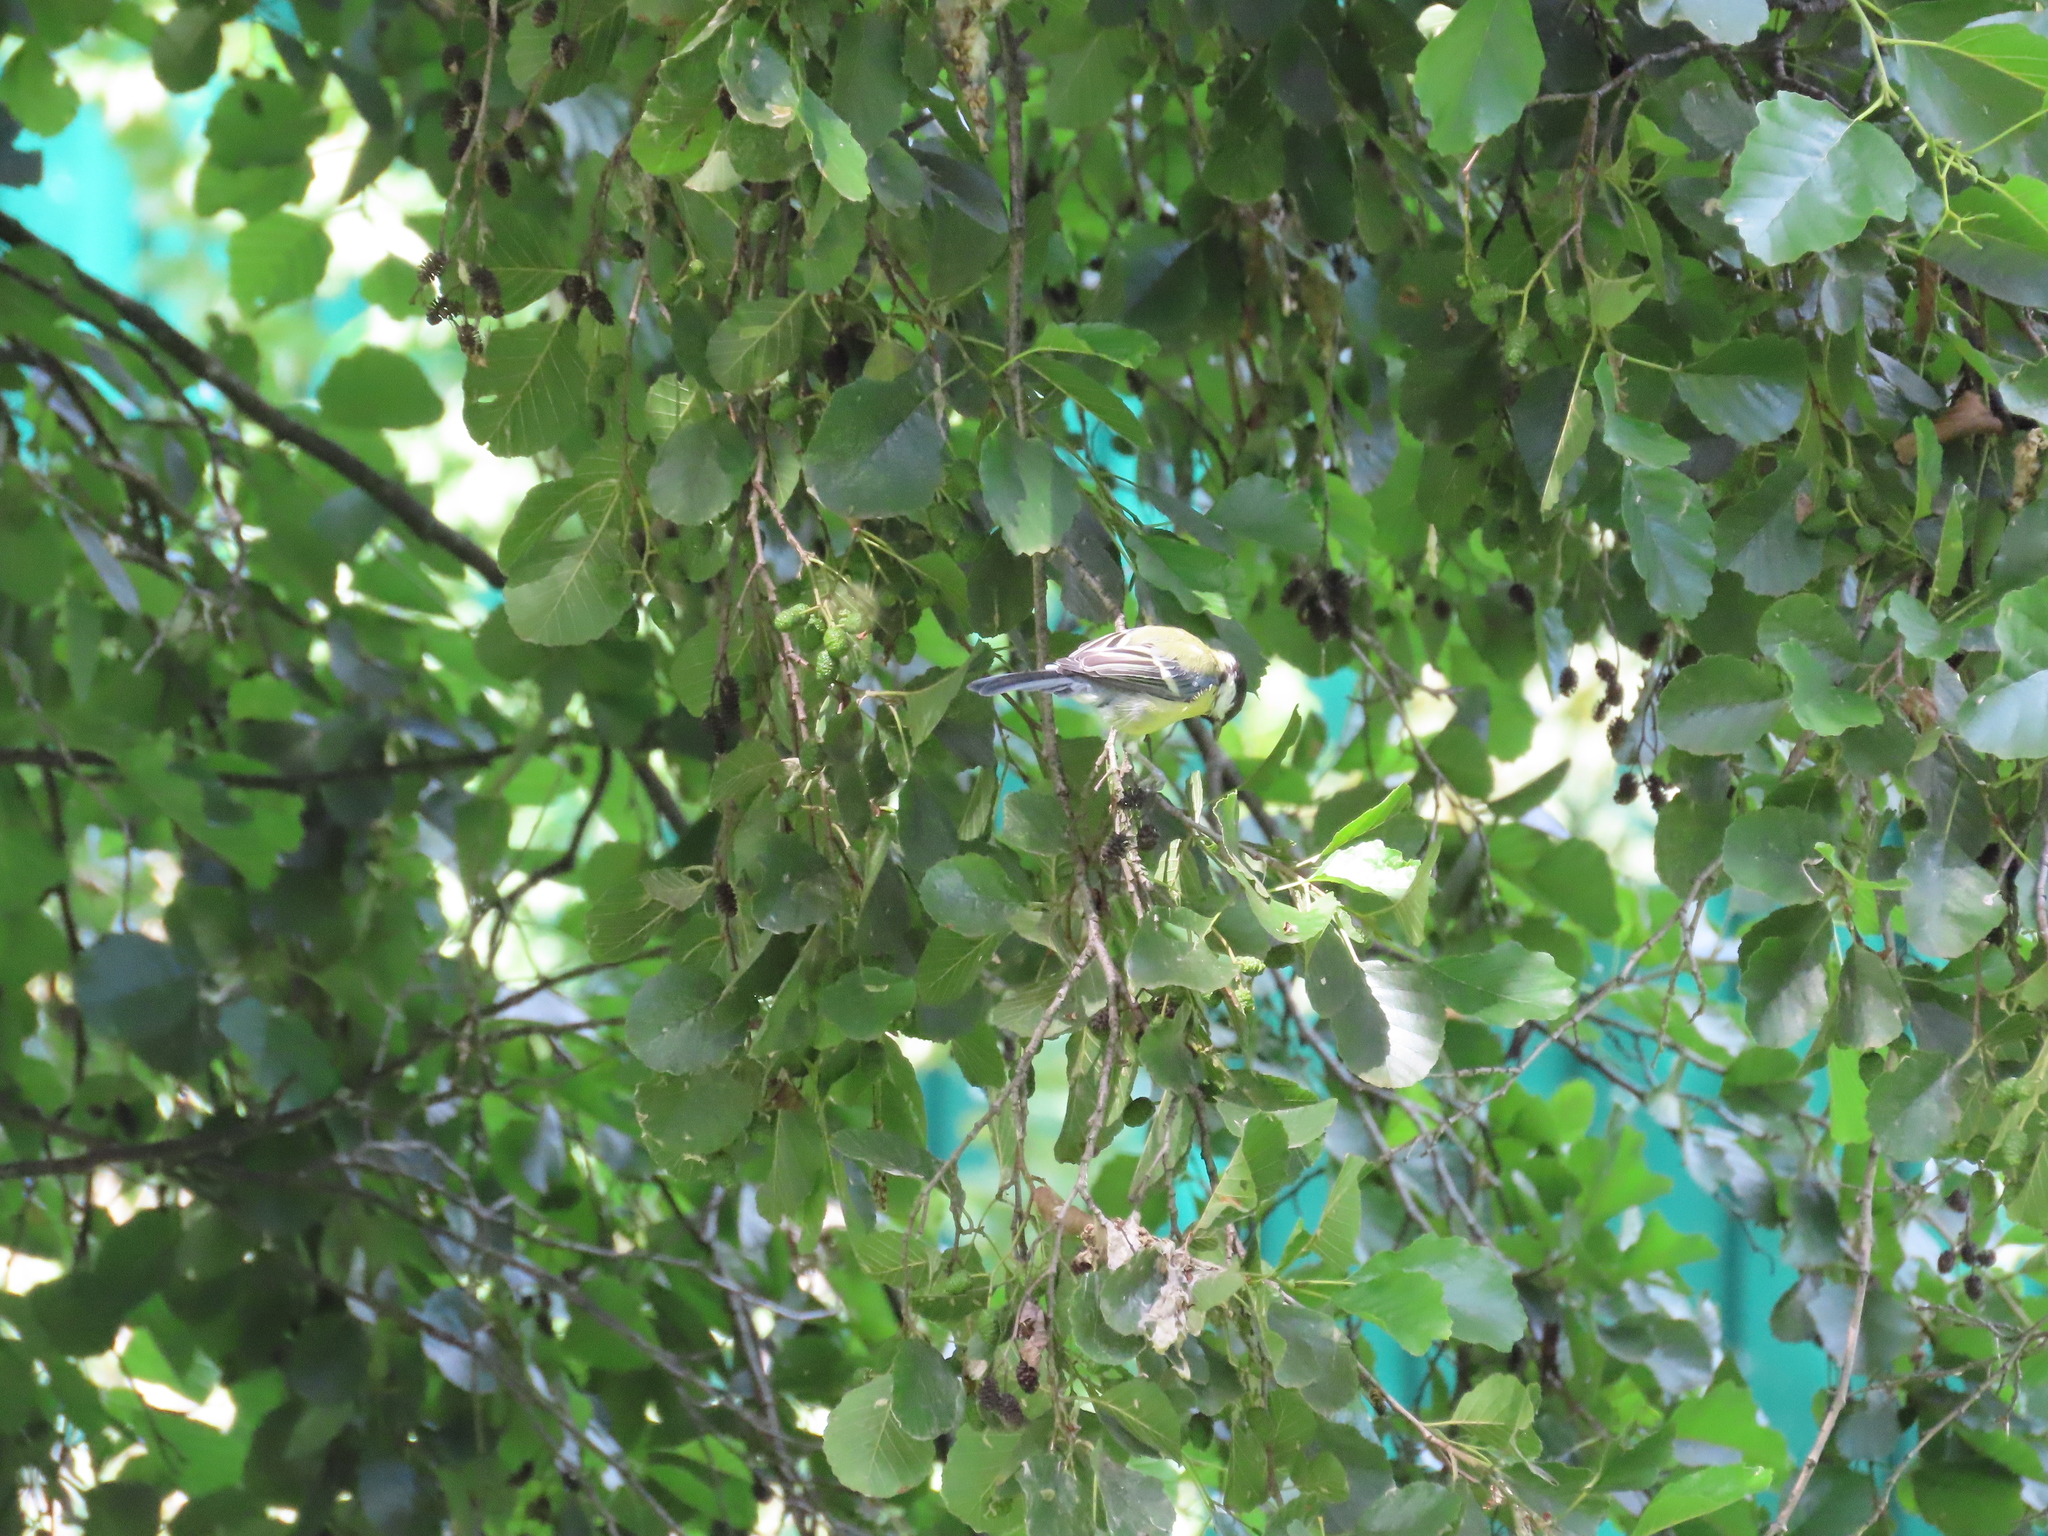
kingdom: Animalia
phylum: Chordata
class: Aves
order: Passeriformes
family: Paridae
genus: Parus
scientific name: Parus major
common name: Great tit
